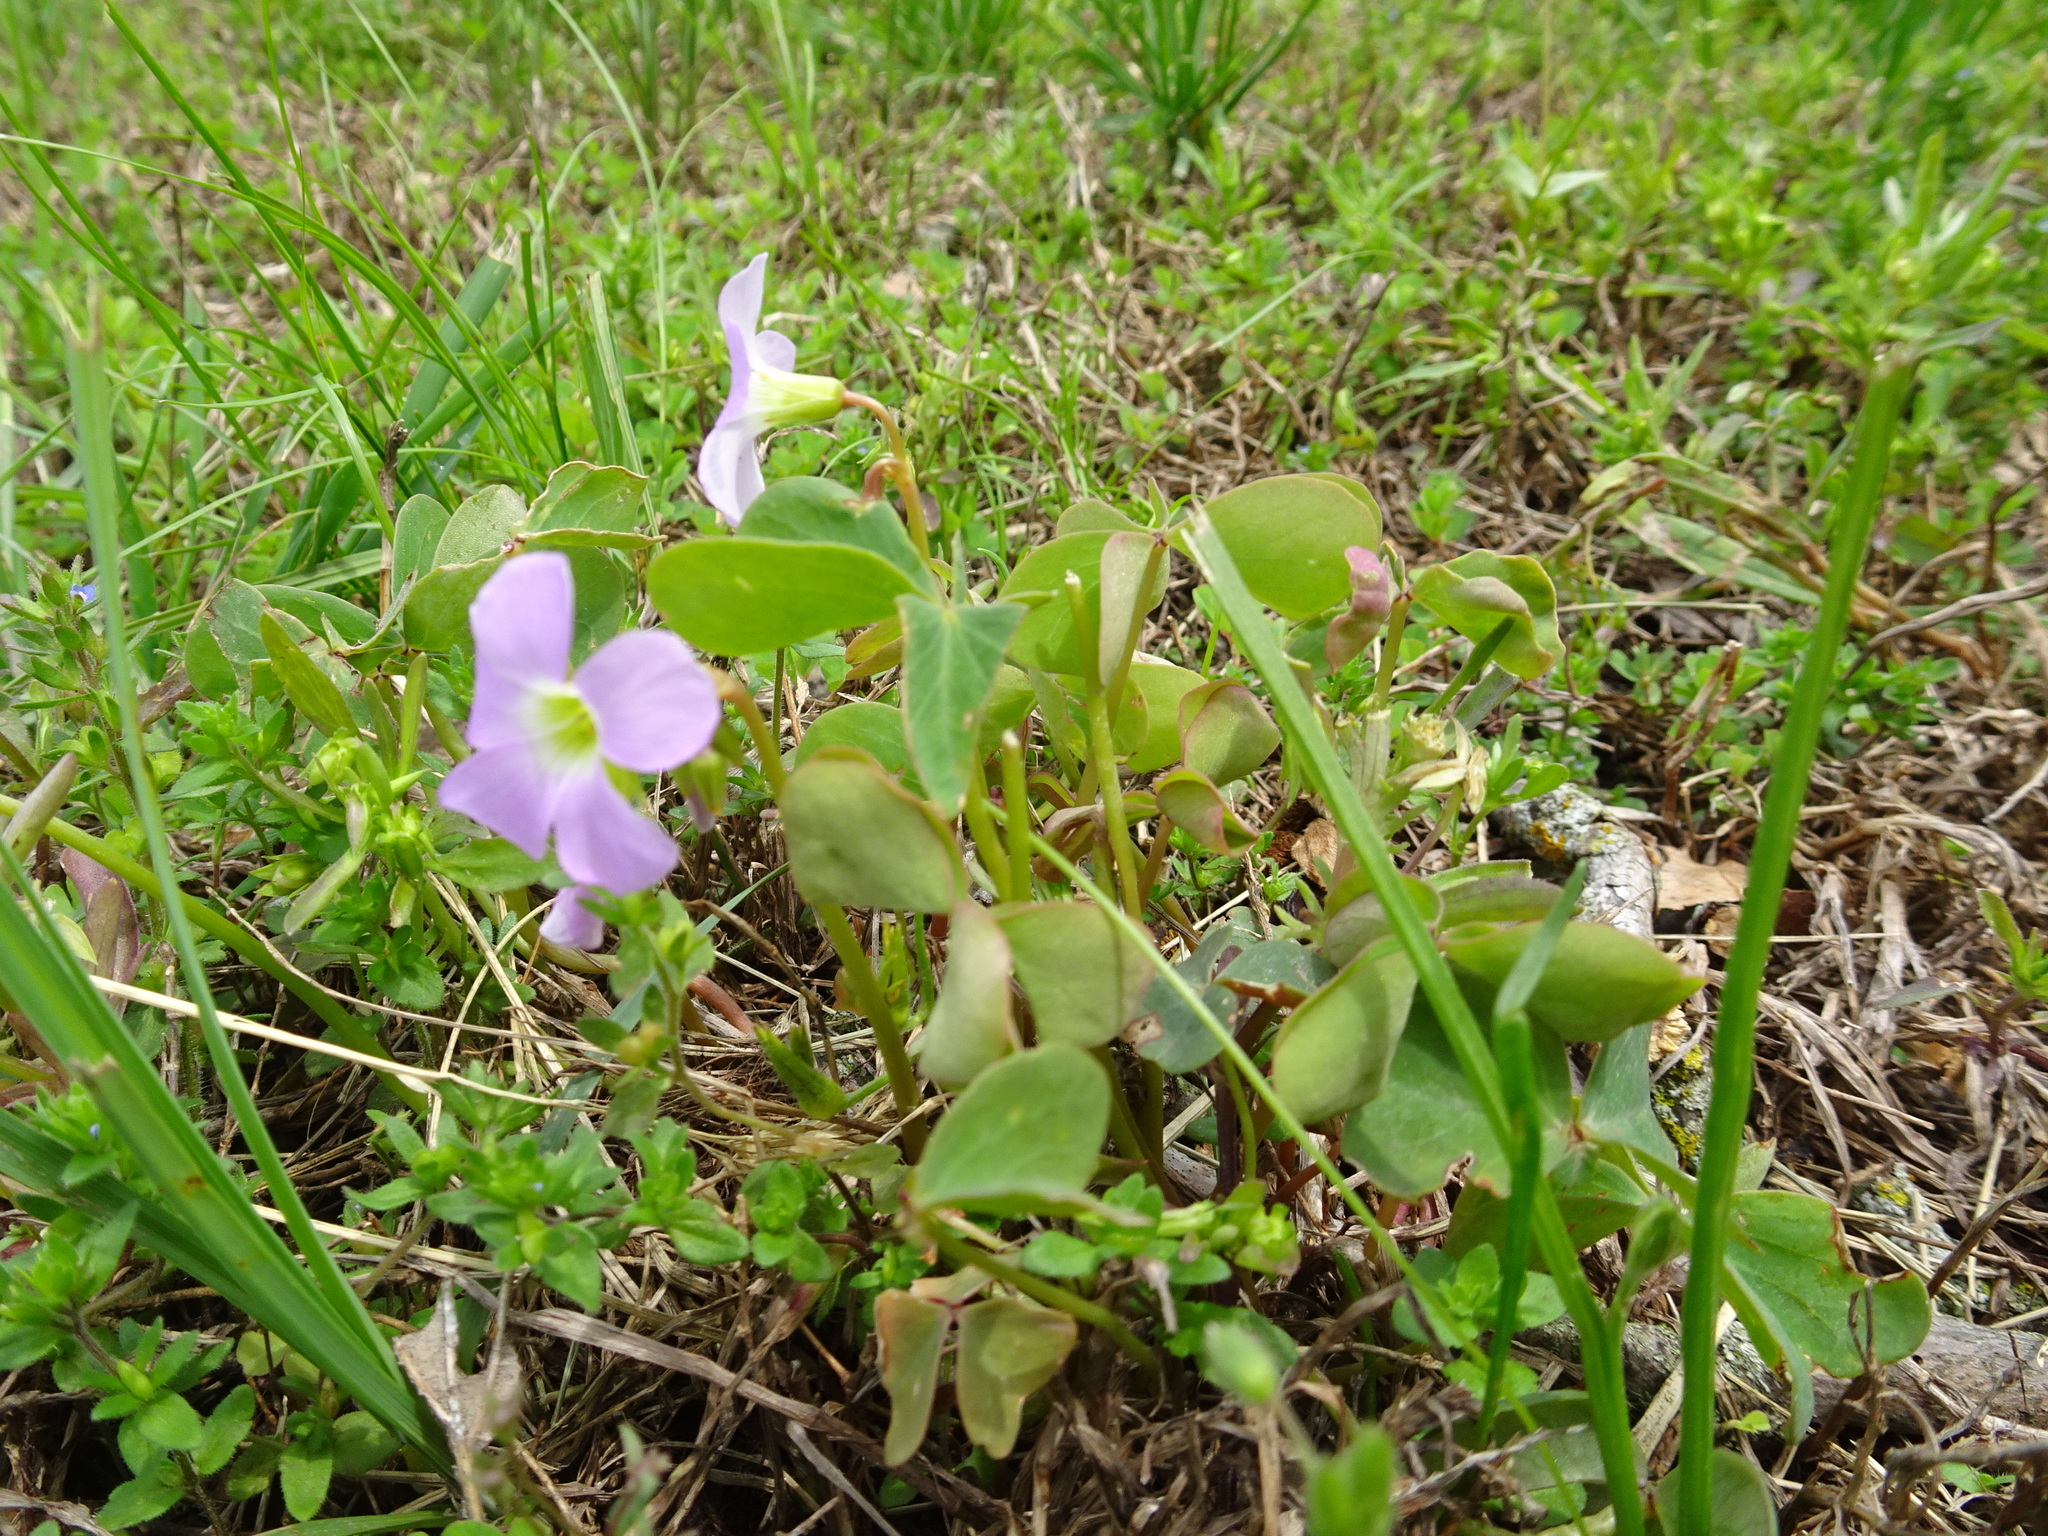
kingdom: Plantae
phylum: Tracheophyta
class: Magnoliopsida
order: Oxalidales
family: Oxalidaceae
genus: Oxalis
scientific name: Oxalis violacea
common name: Violet wood-sorrel
